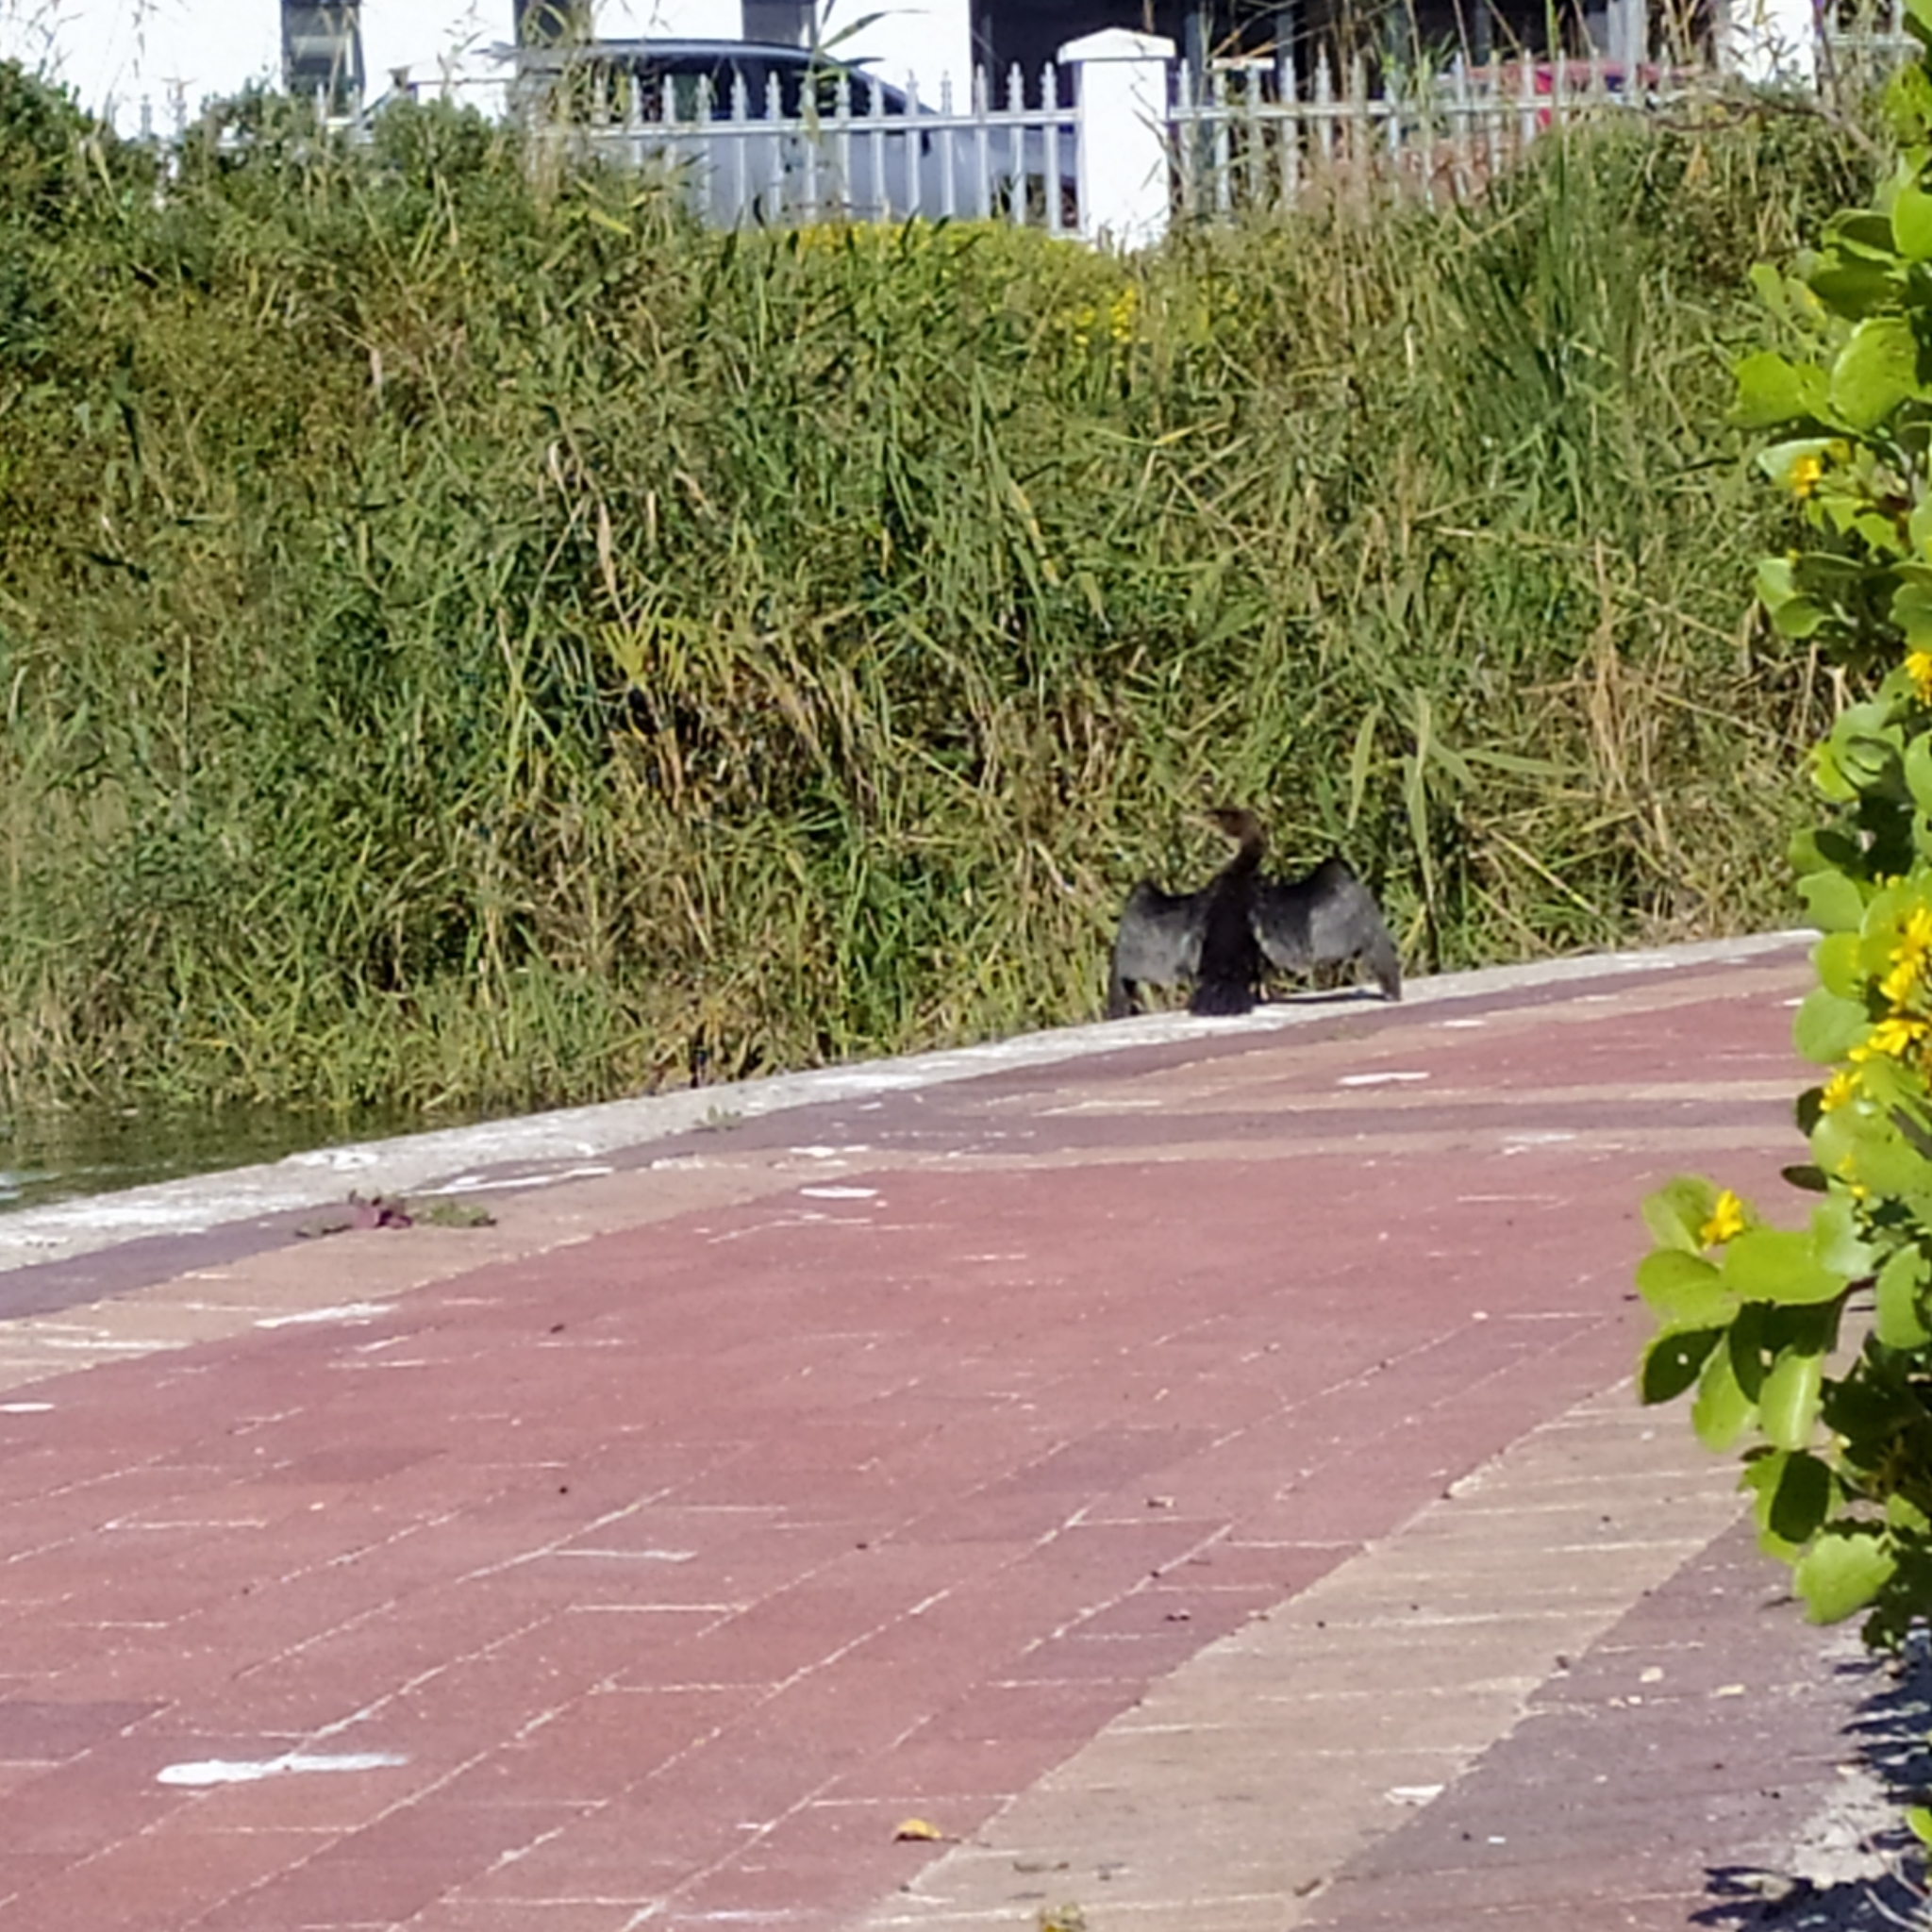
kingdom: Animalia
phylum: Chordata
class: Aves
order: Suliformes
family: Phalacrocoracidae
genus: Microcarbo
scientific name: Microcarbo africanus
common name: Long-tailed cormorant
